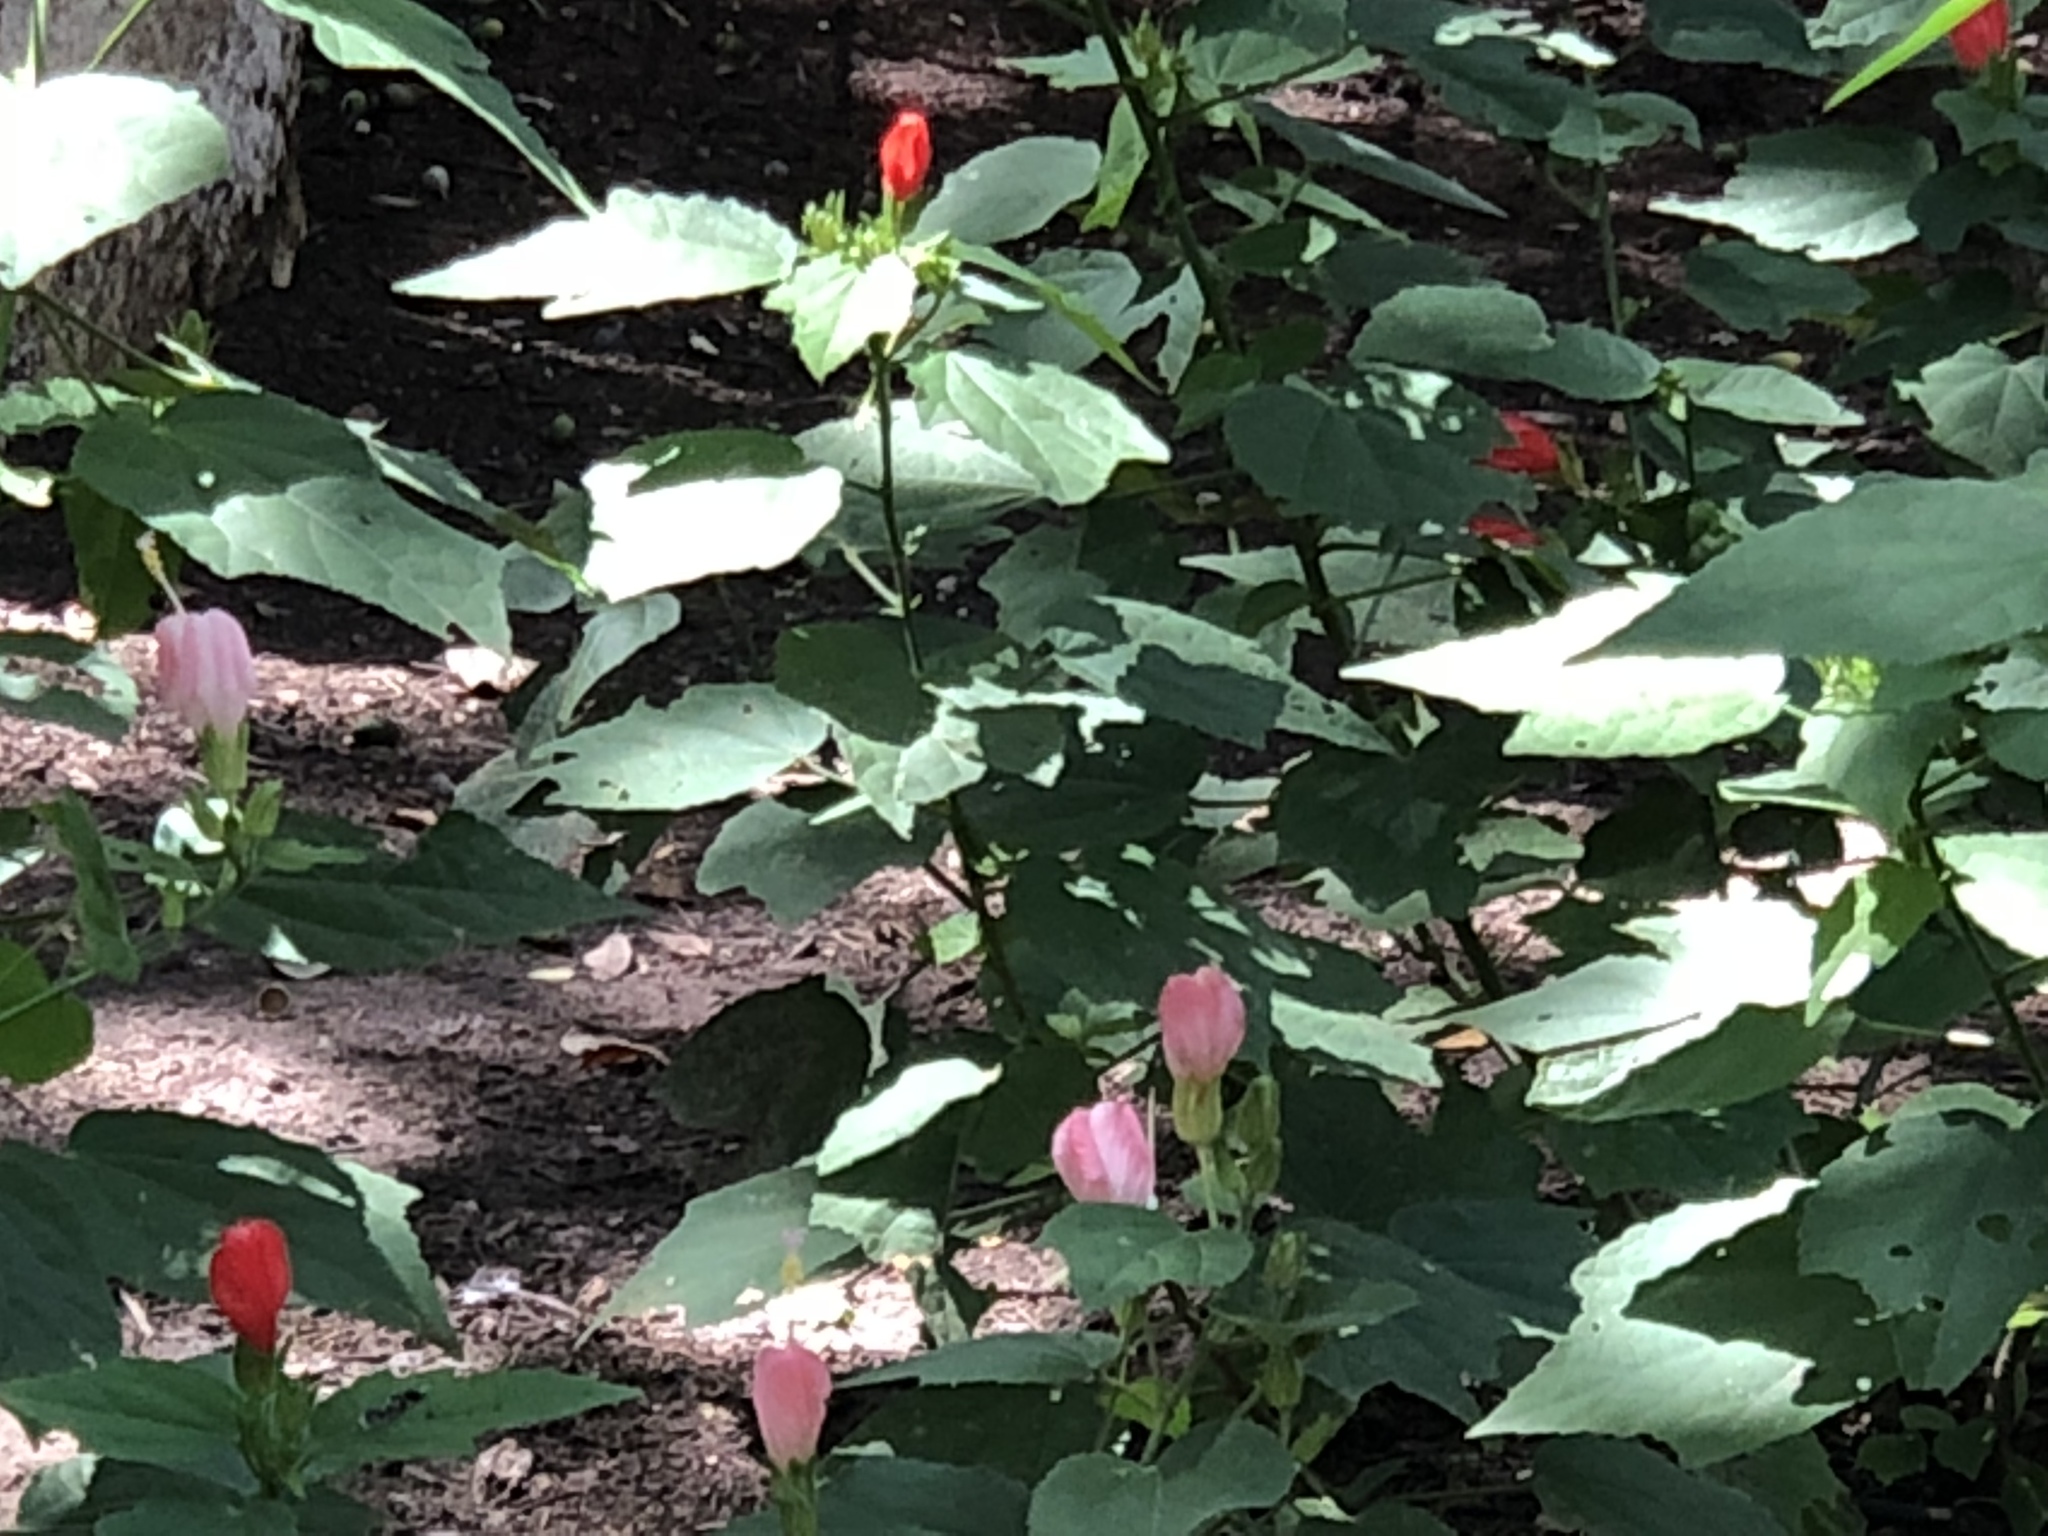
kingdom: Plantae
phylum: Tracheophyta
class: Magnoliopsida
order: Malvales
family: Malvaceae
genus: Malvaviscus
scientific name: Malvaviscus arboreus
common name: Wax mallow
